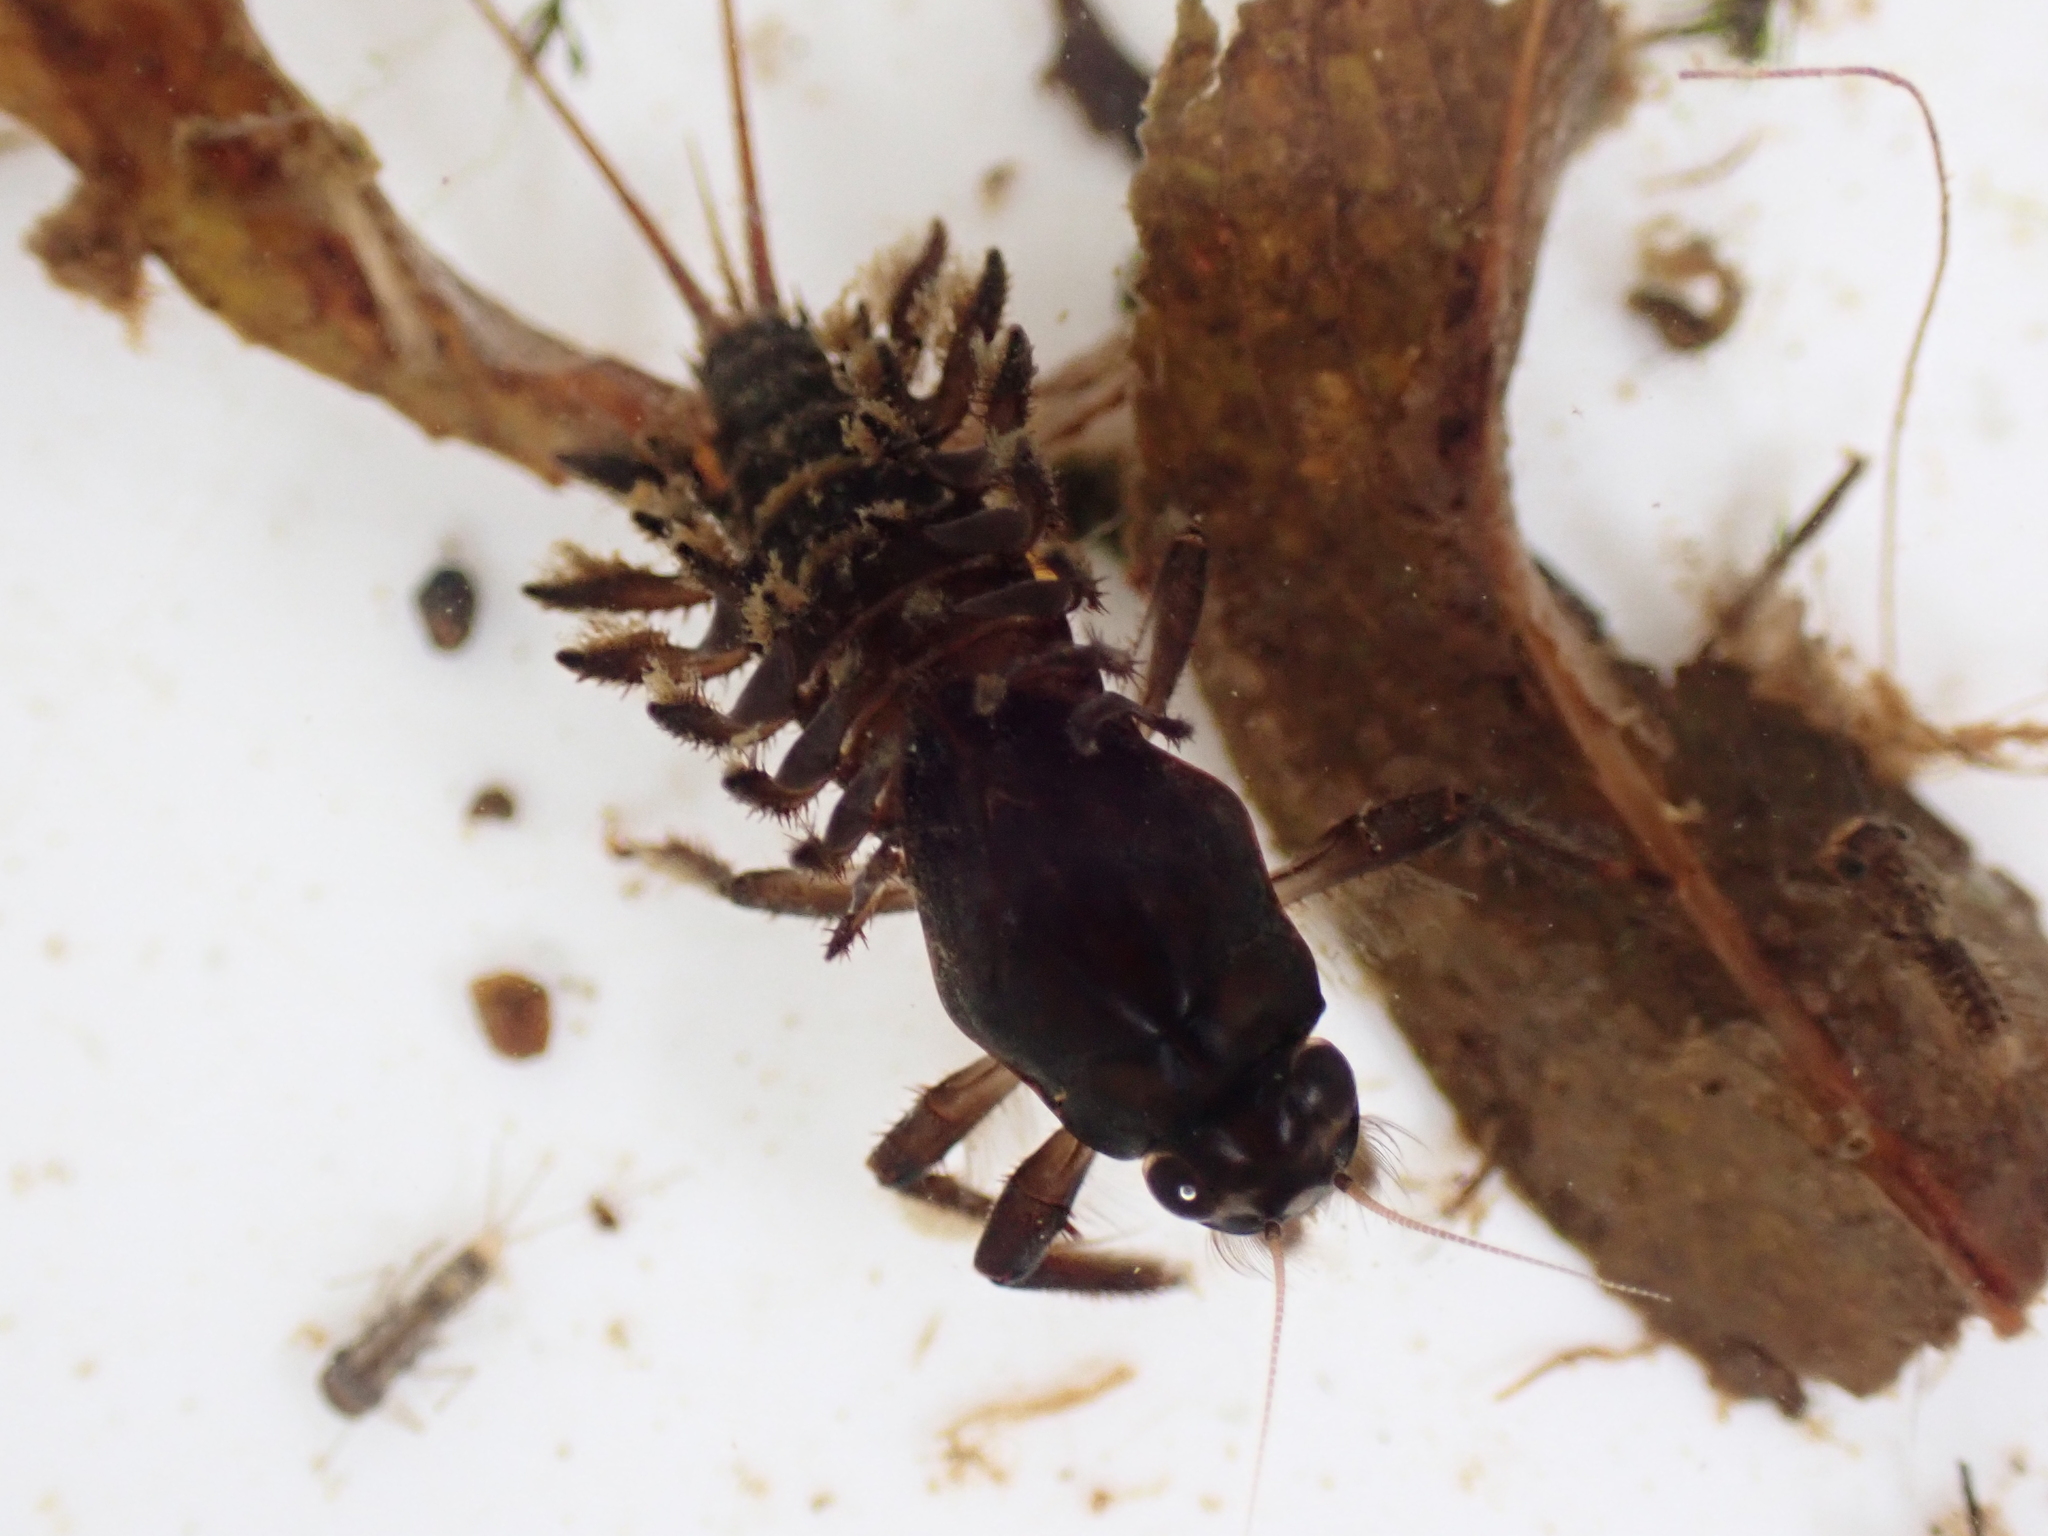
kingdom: Animalia
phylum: Arthropoda
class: Insecta
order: Ephemeroptera
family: Coloburiscidae
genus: Coloburiscus
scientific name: Coloburiscus humeralis
